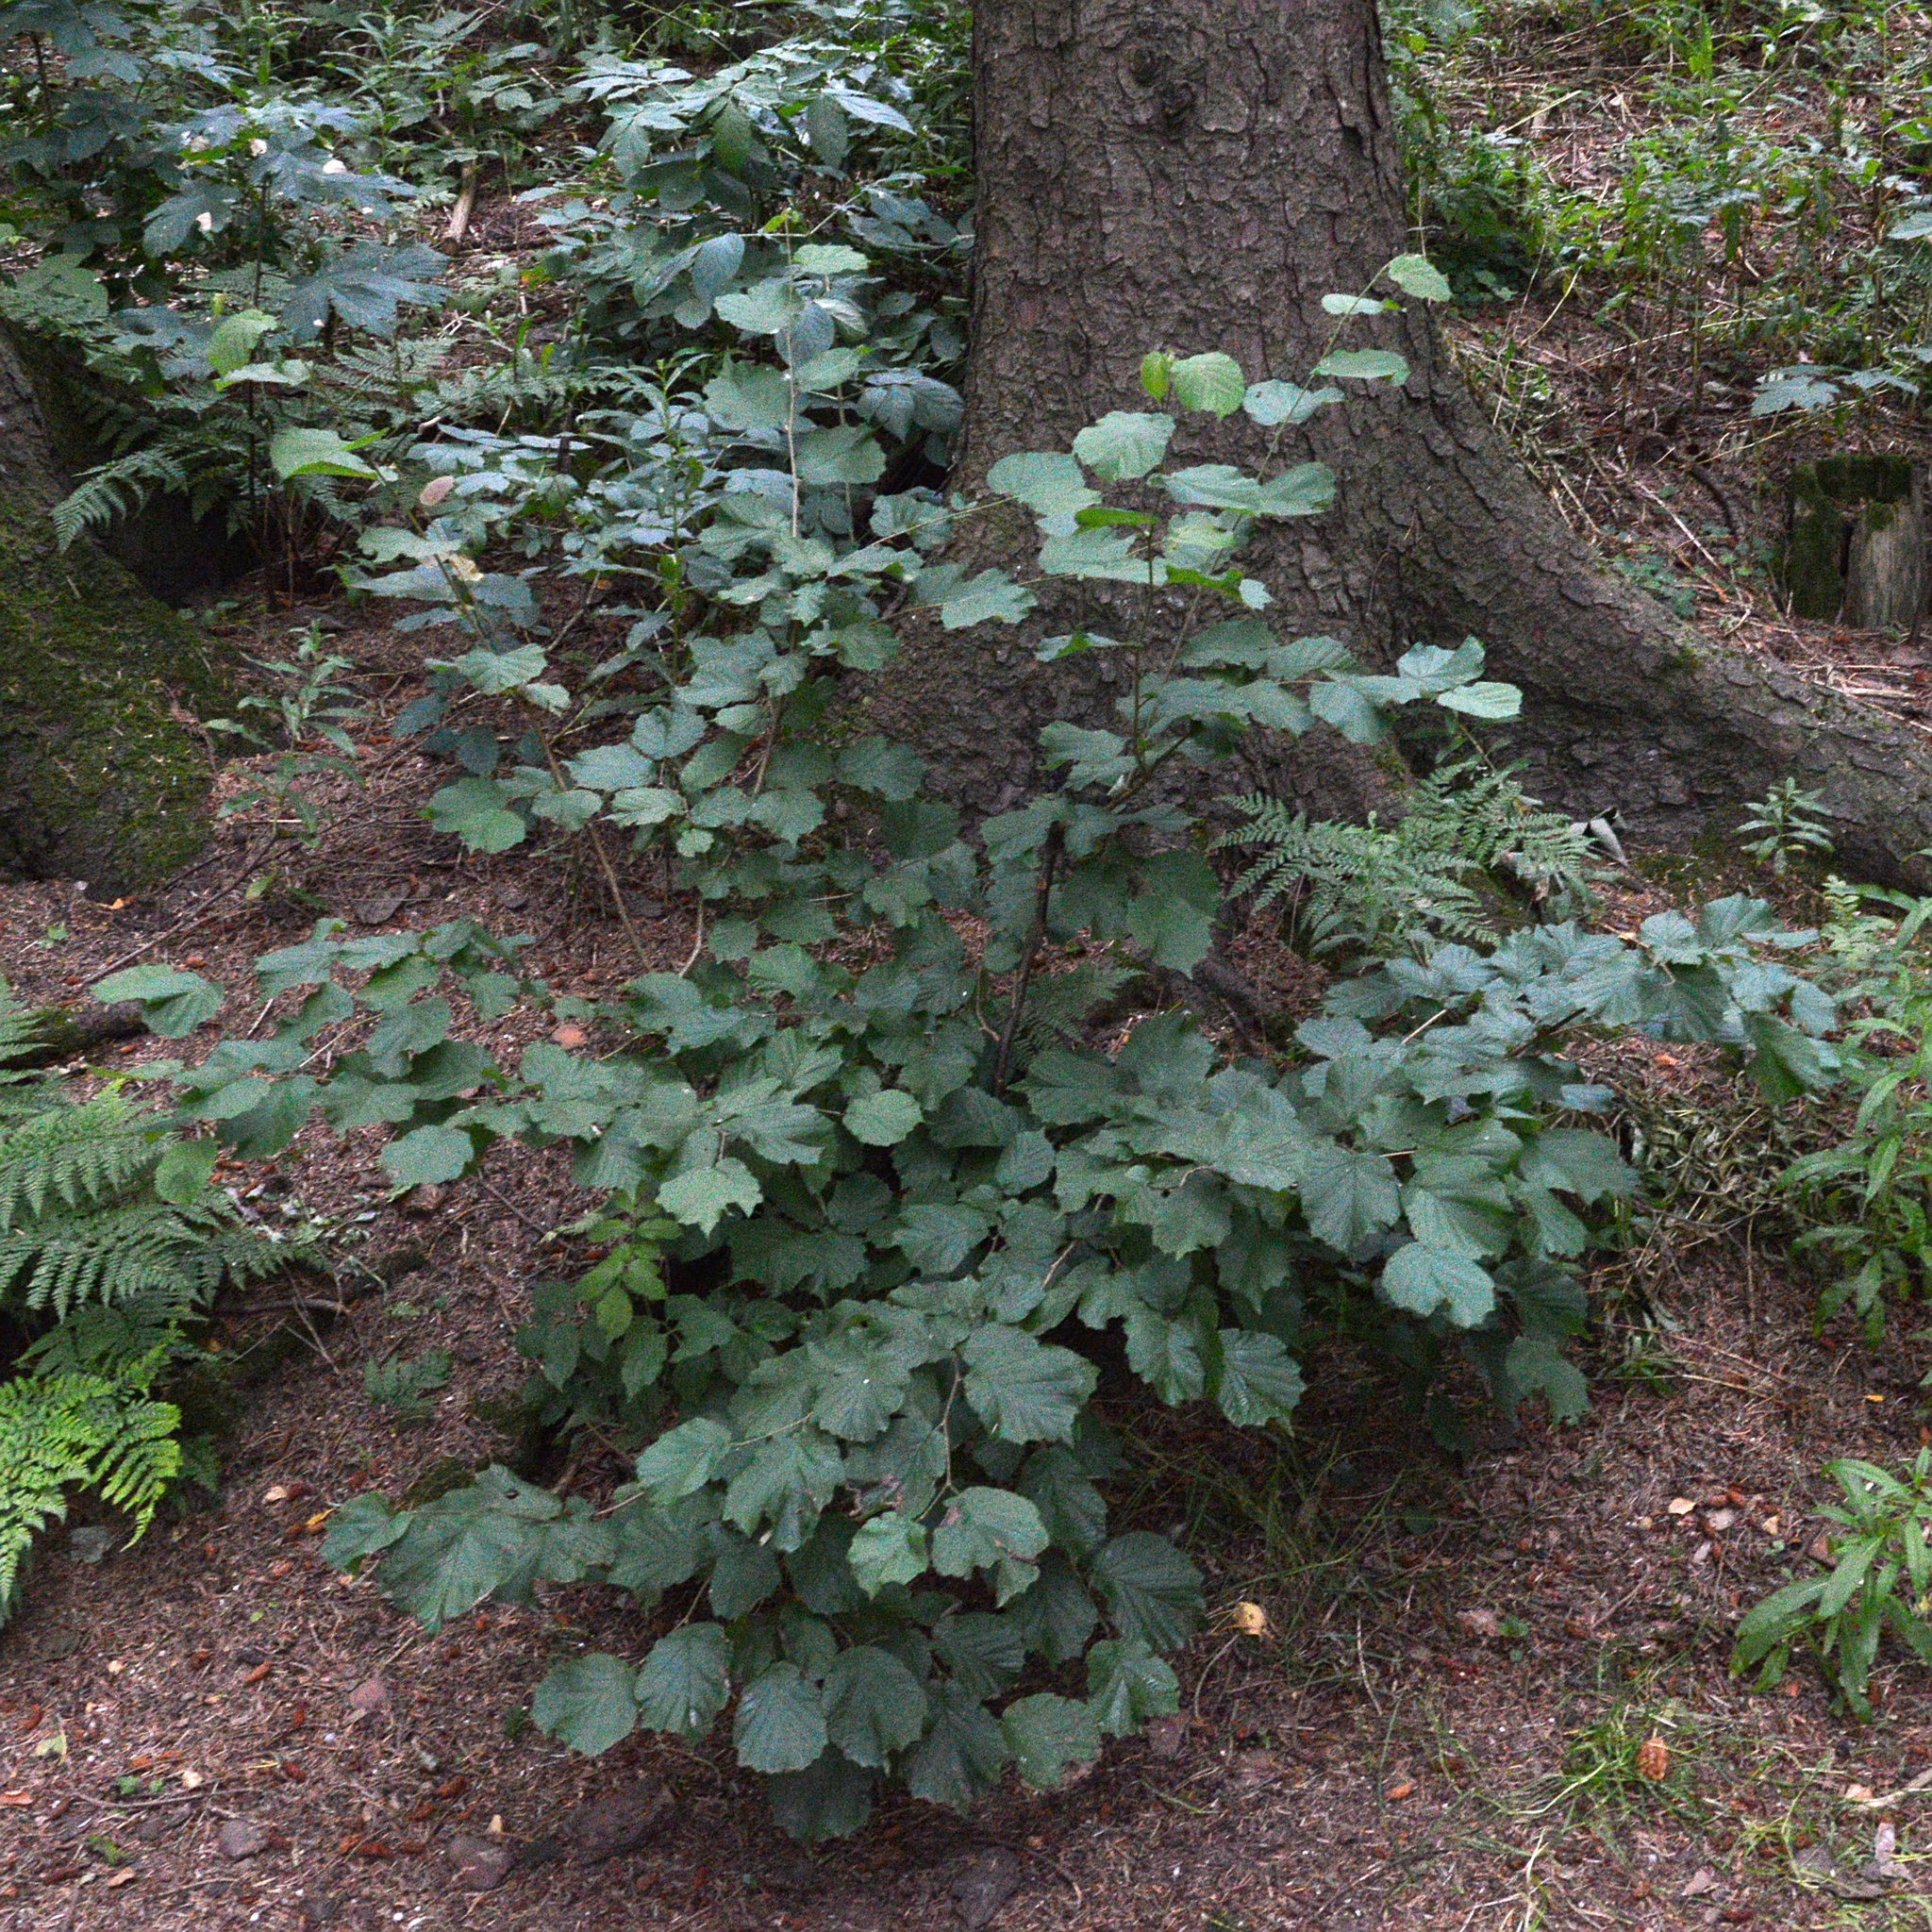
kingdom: Plantae
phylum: Tracheophyta
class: Magnoliopsida
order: Fagales
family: Betulaceae
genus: Corylus
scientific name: Corylus avellana
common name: European hazel
